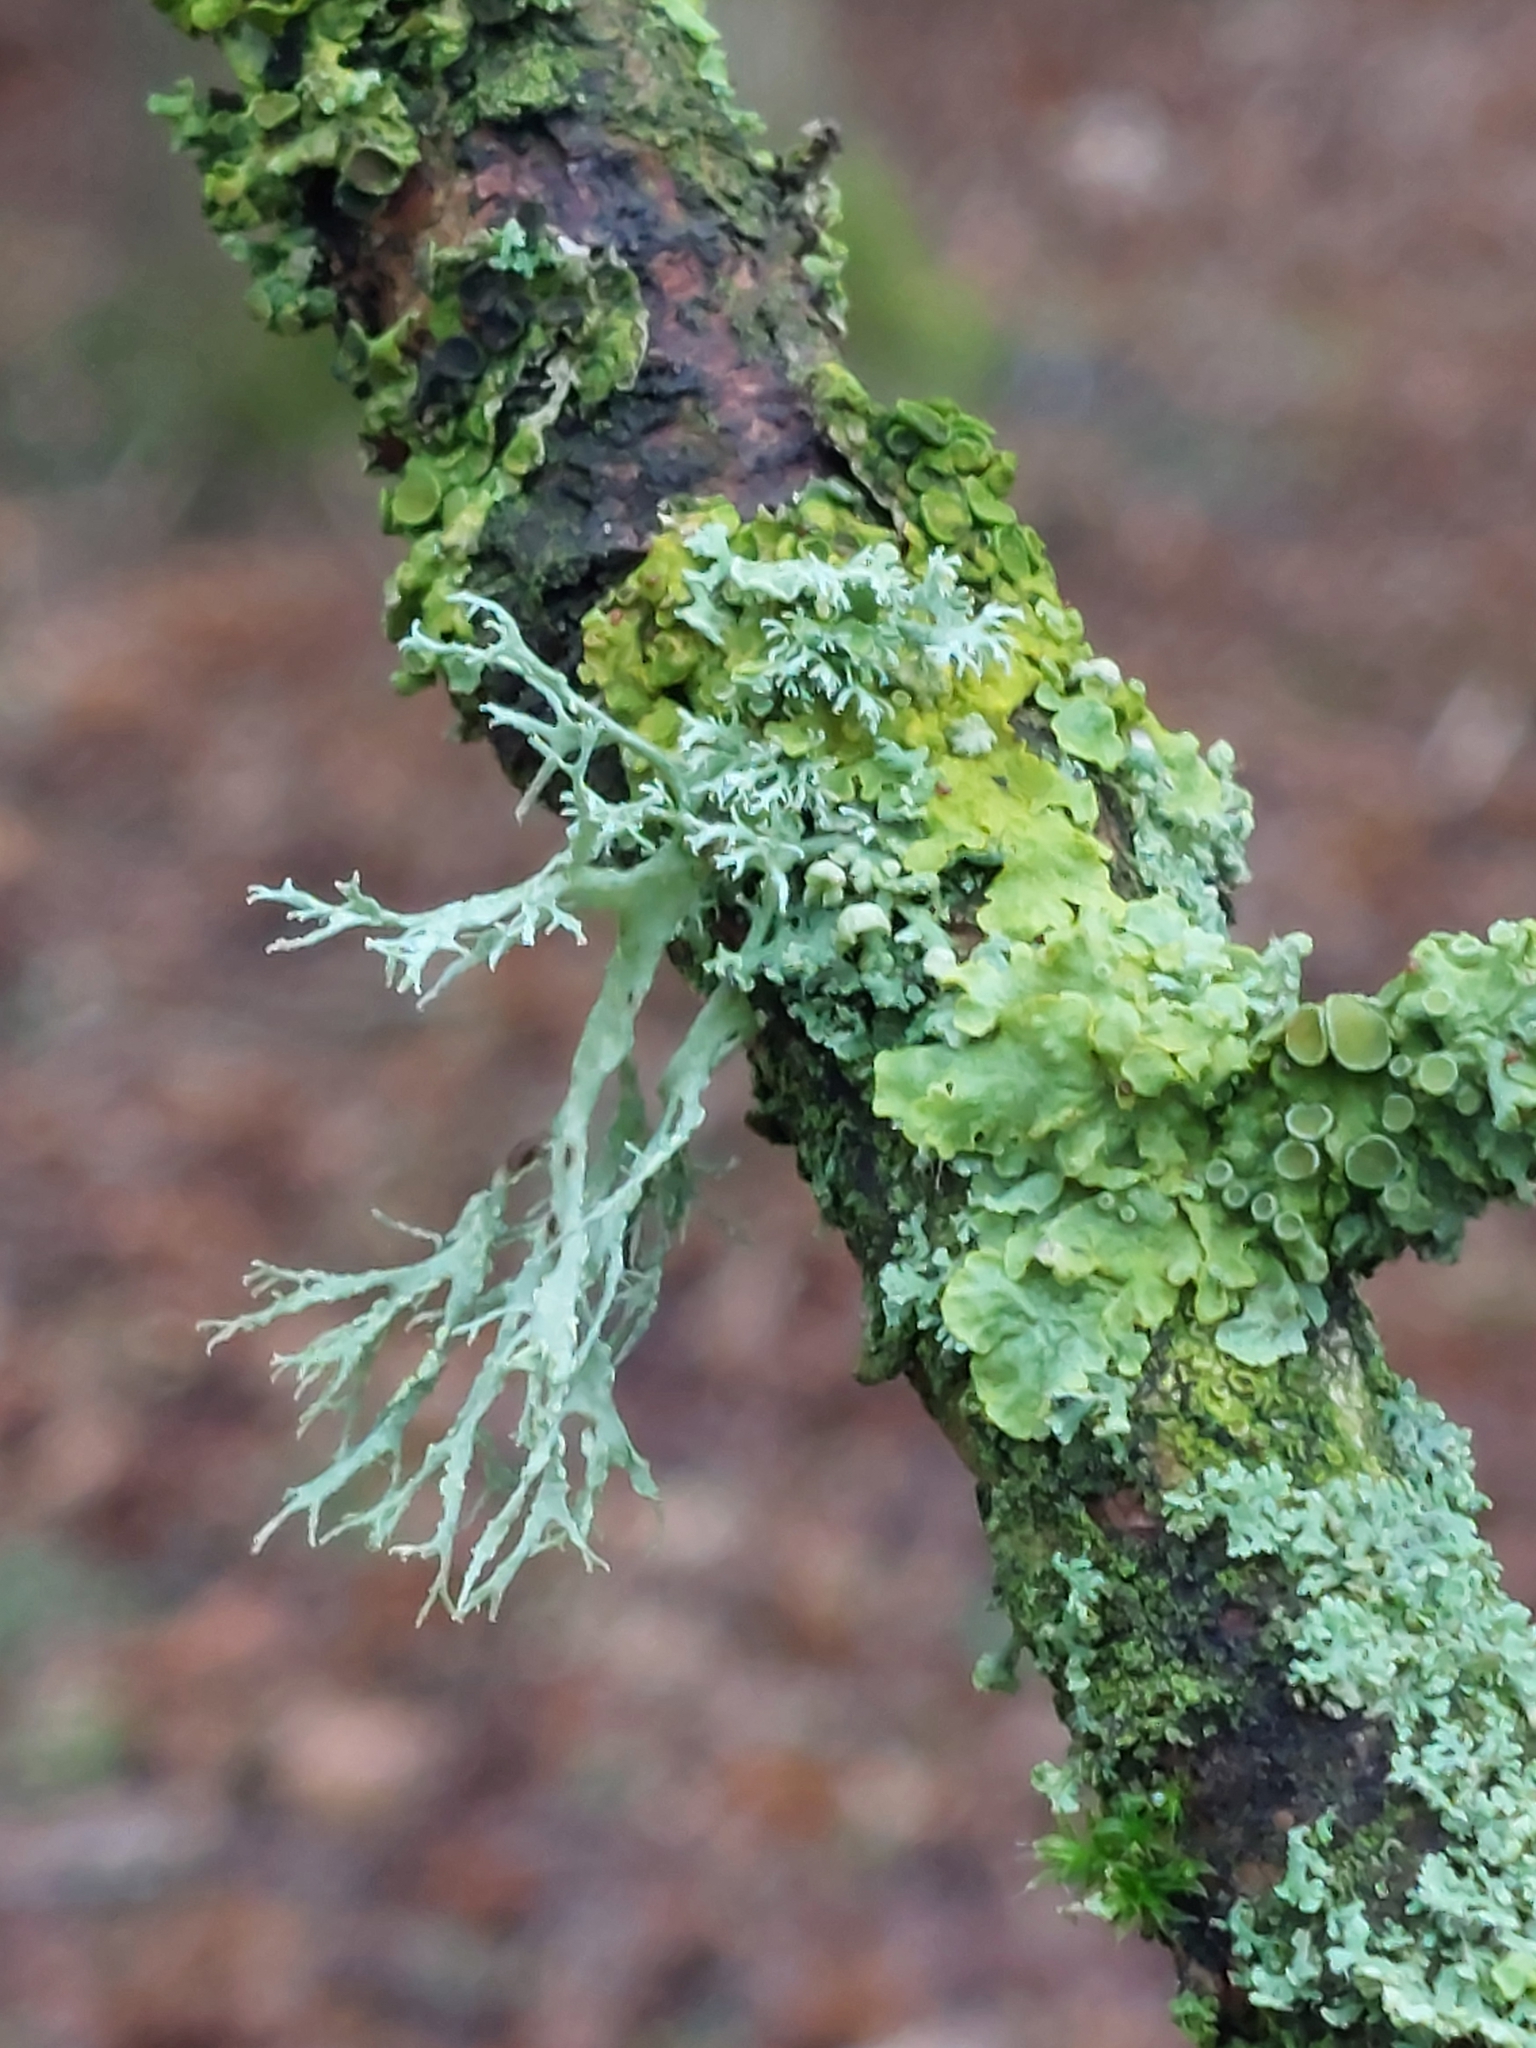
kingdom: Fungi
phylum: Ascomycota
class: Lecanoromycetes
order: Lecanorales
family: Ramalinaceae
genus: Ramalina
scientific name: Ramalina farinacea
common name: Farinose cartilage lichen
